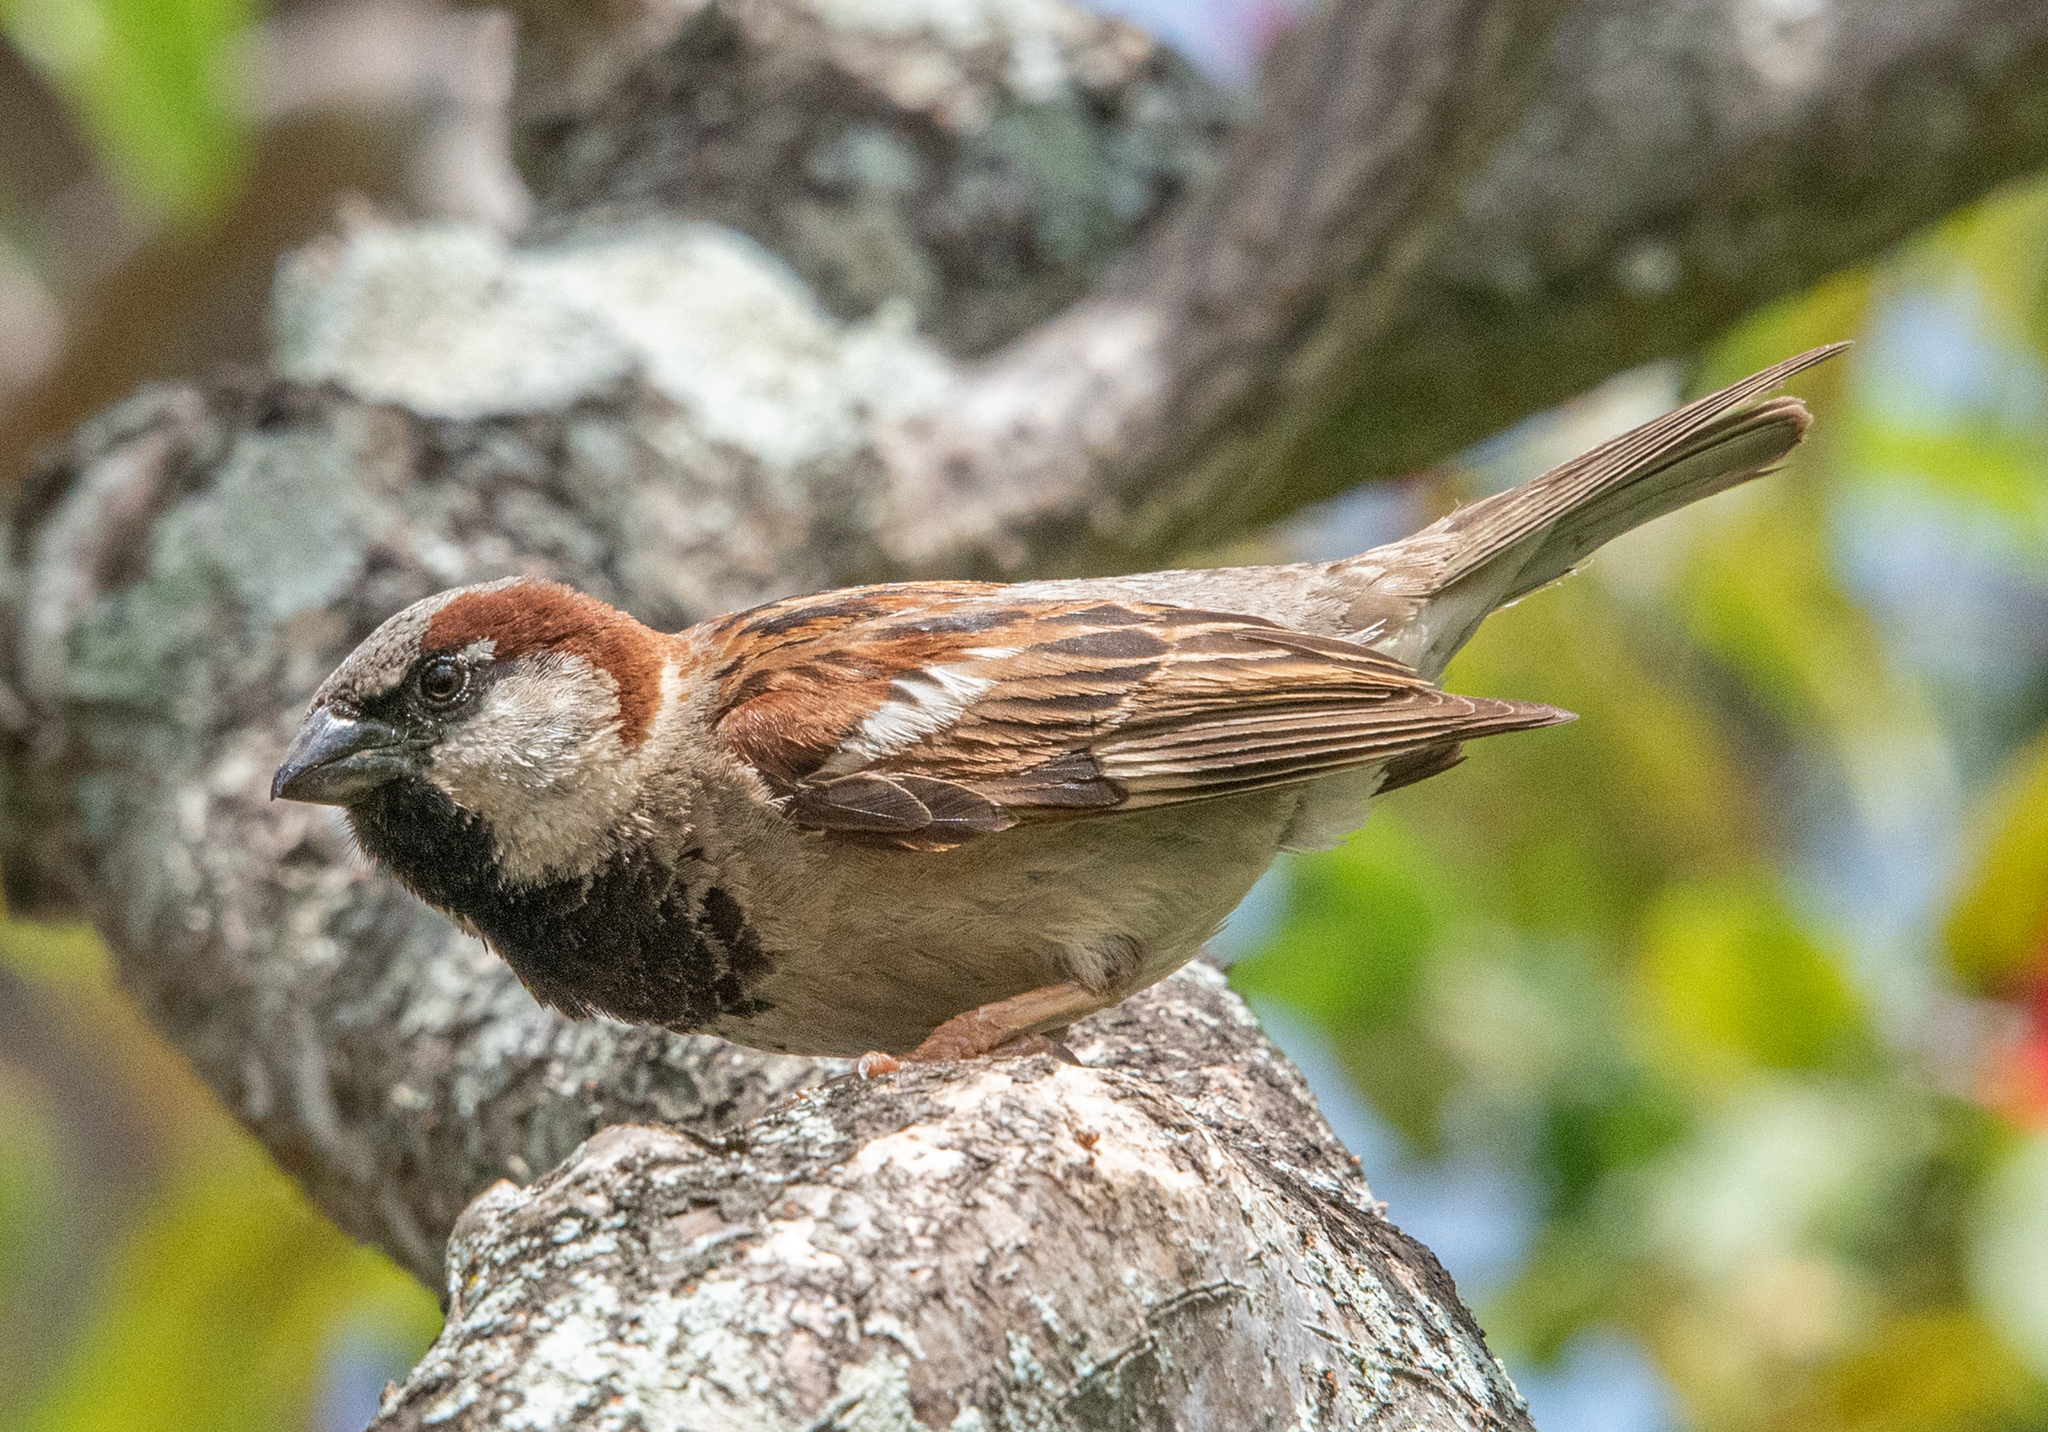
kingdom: Animalia
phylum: Chordata
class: Aves
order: Passeriformes
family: Passeridae
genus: Passer
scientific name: Passer domesticus
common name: House sparrow
